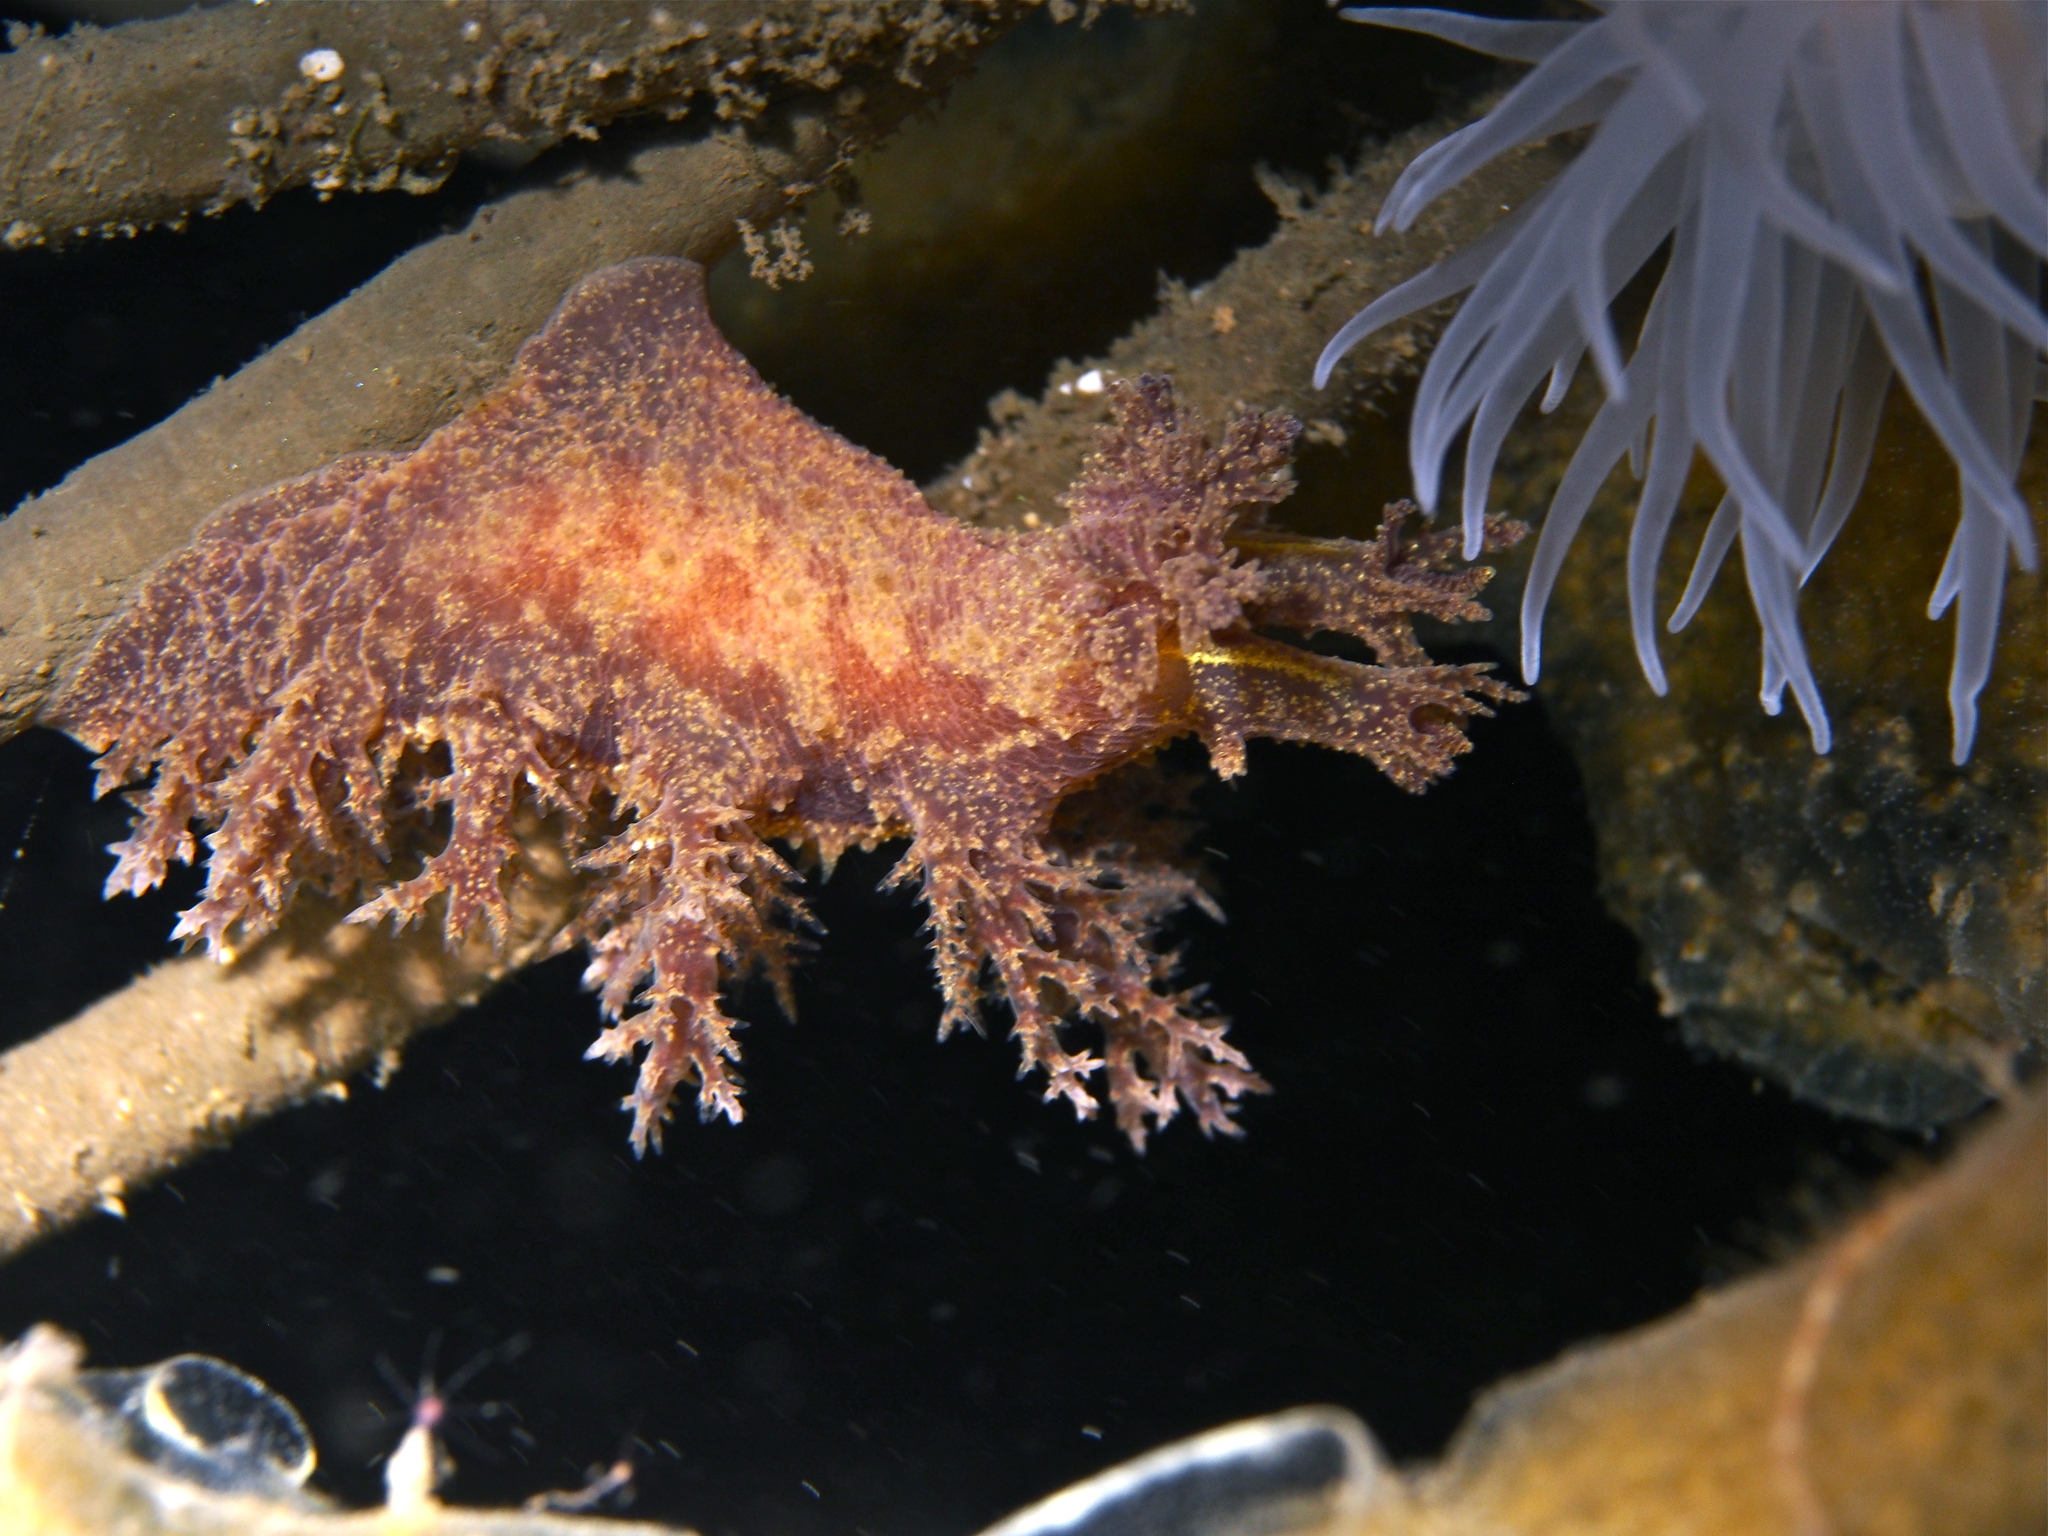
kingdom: Animalia
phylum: Mollusca
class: Gastropoda
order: Nudibranchia
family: Dendronotidae
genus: Dendronotus
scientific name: Dendronotus europaeus
